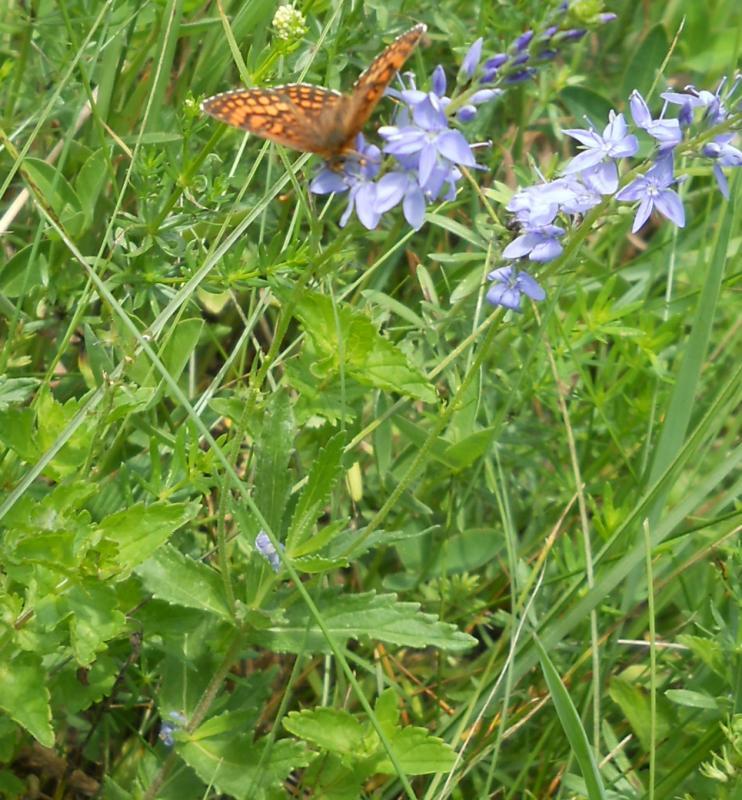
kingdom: Plantae
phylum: Tracheophyta
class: Magnoliopsida
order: Lamiales
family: Plantaginaceae
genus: Veronica
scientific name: Veronica teucrium
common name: Large speedwell
